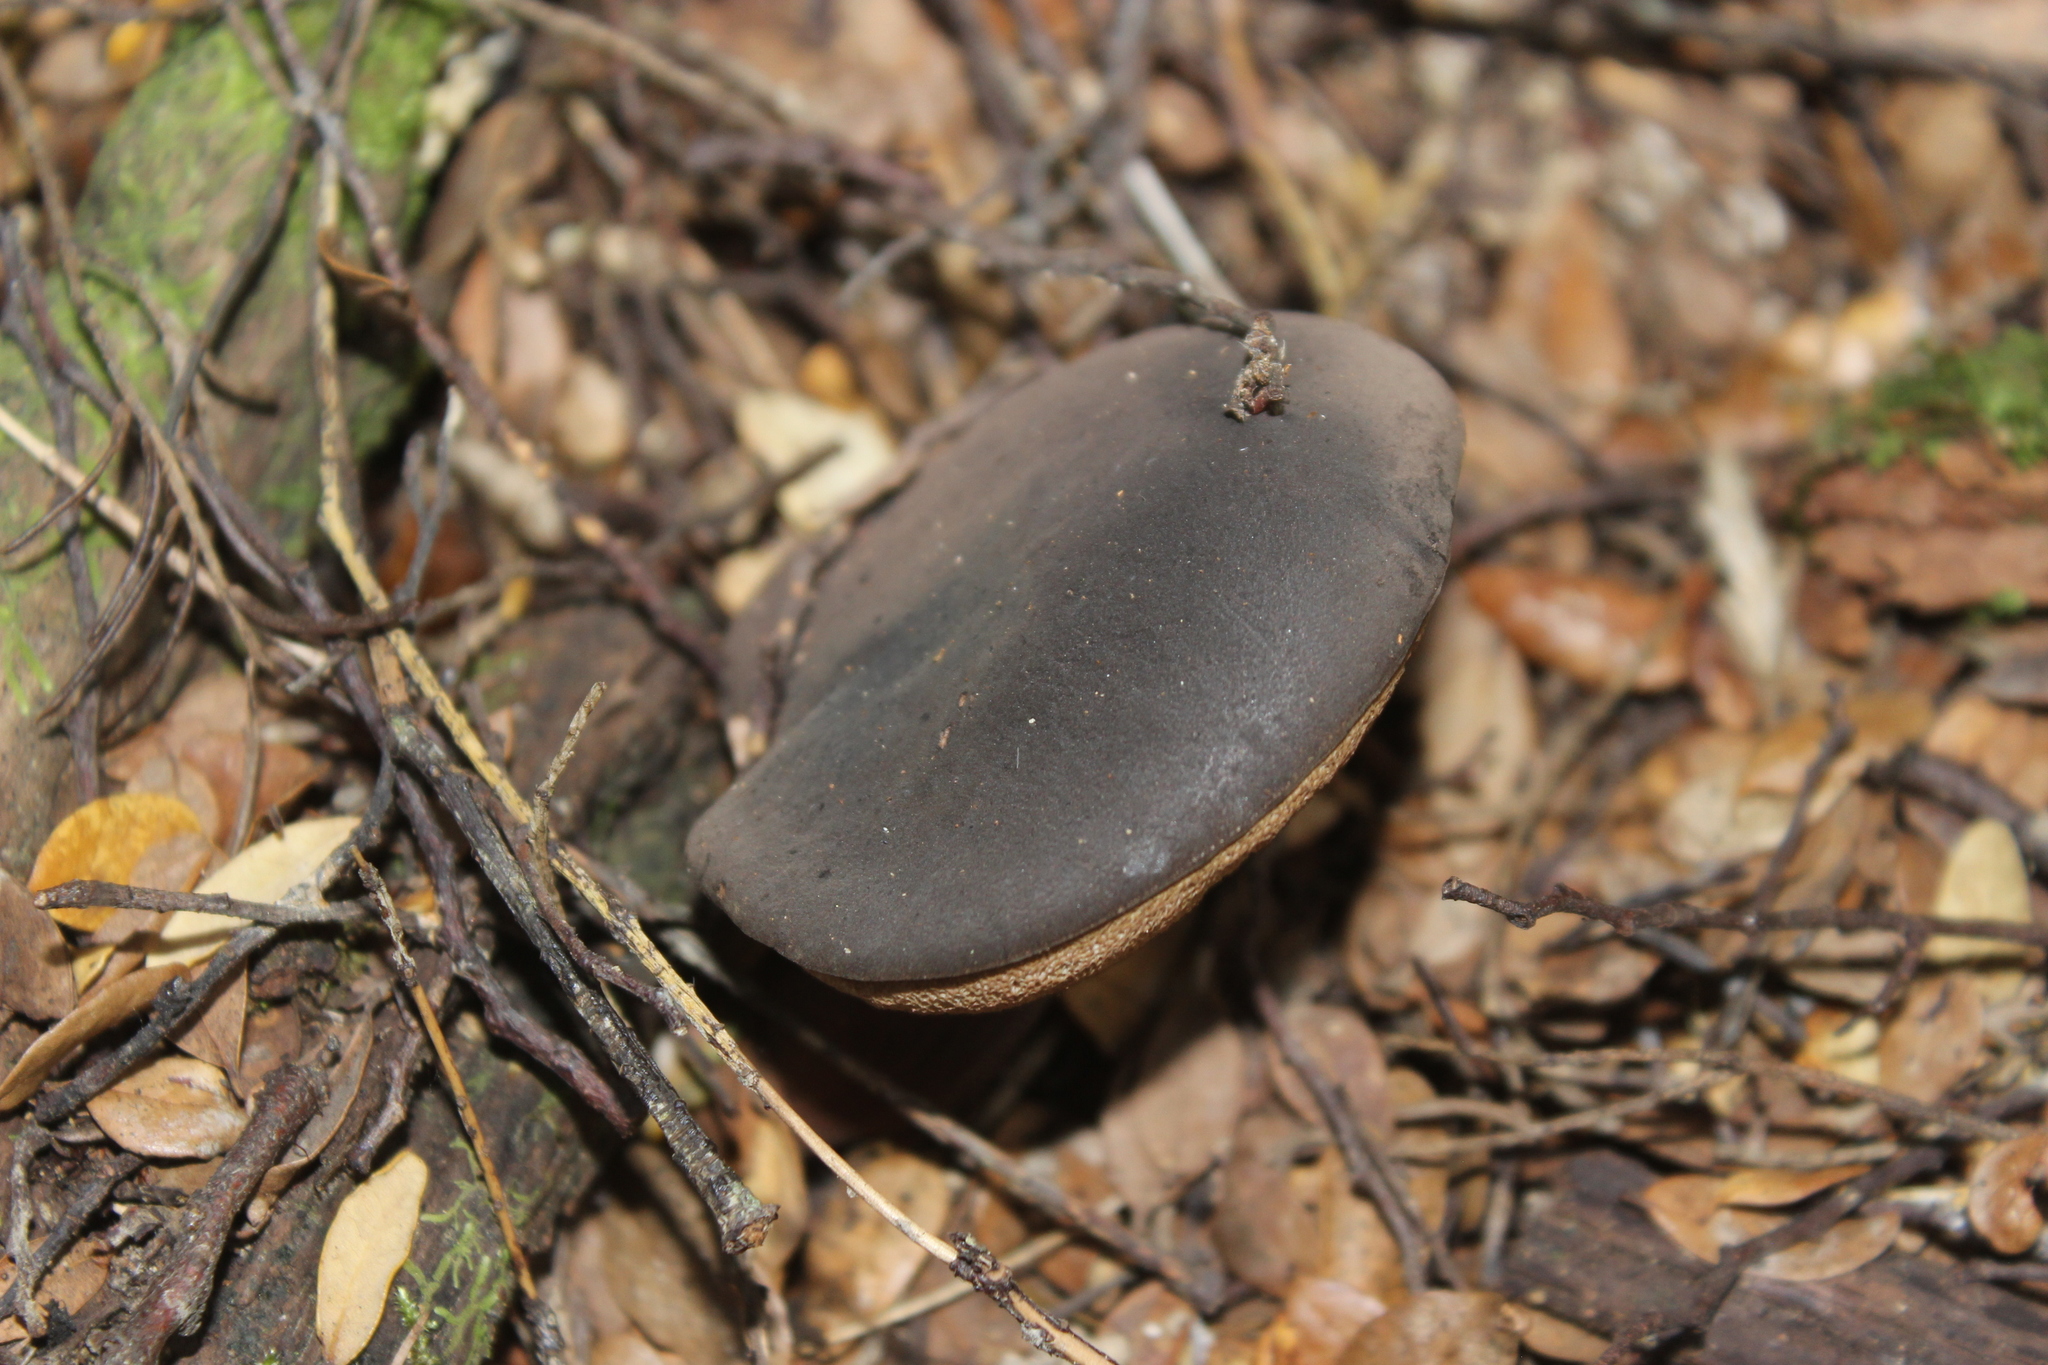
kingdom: Fungi
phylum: Basidiomycota
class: Agaricomycetes
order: Boletales
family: Boletaceae
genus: Porphyrellus
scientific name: Porphyrellus formosus
